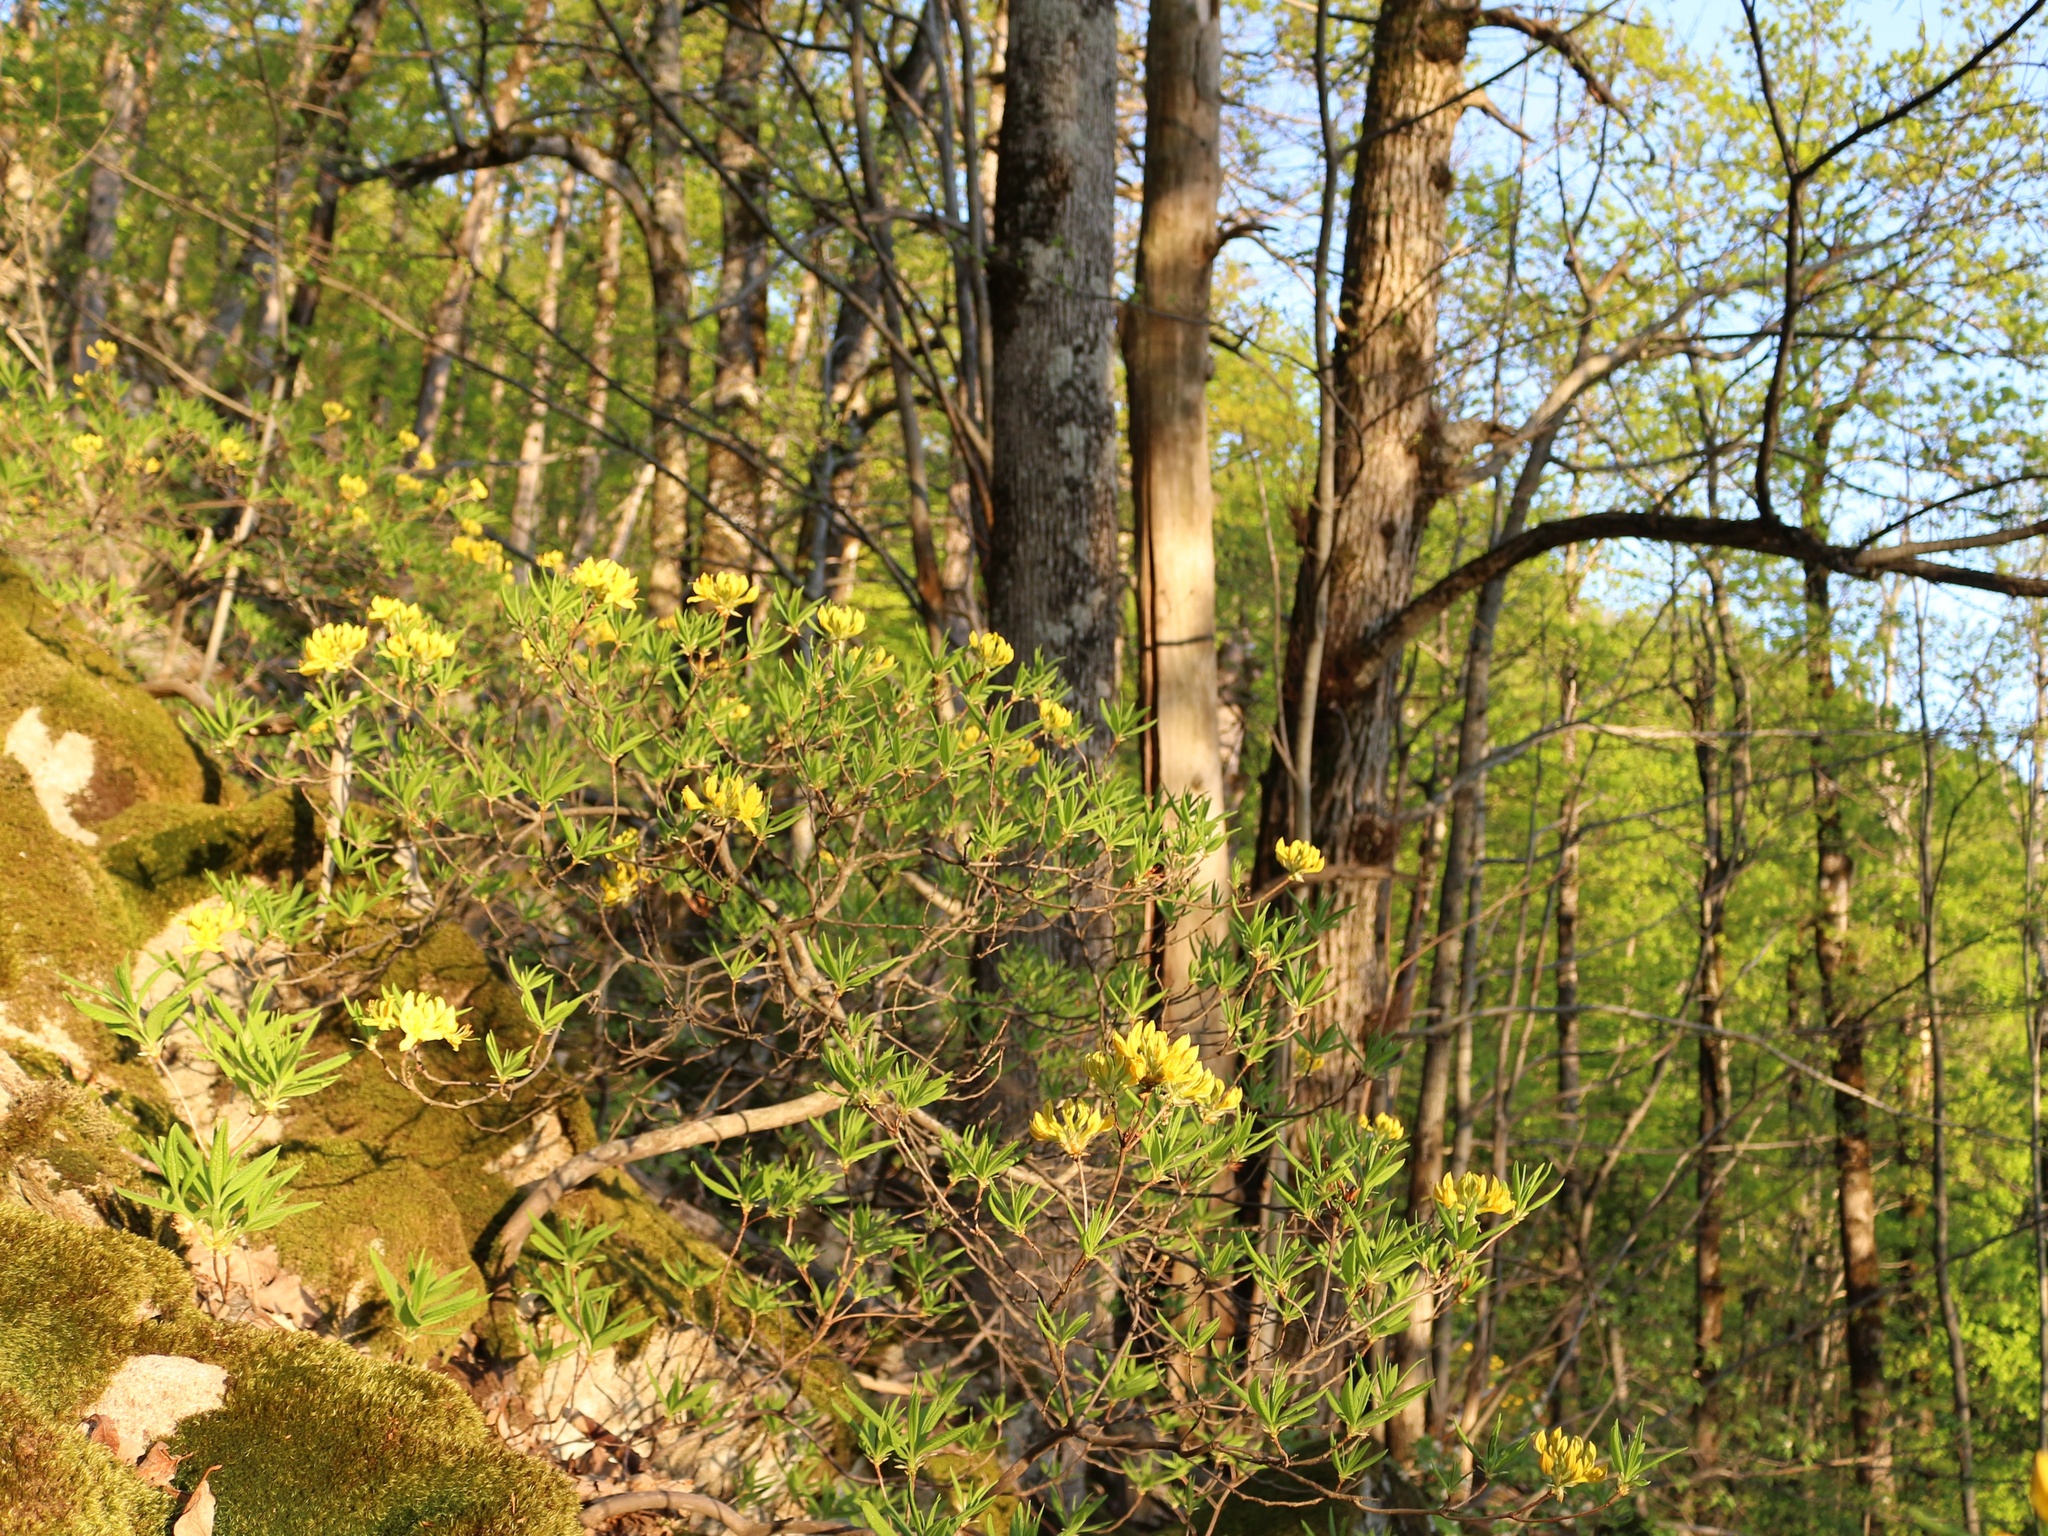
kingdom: Plantae
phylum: Tracheophyta
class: Magnoliopsida
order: Ericales
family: Ericaceae
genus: Rhododendron
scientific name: Rhododendron luteum
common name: Yellow azalea
